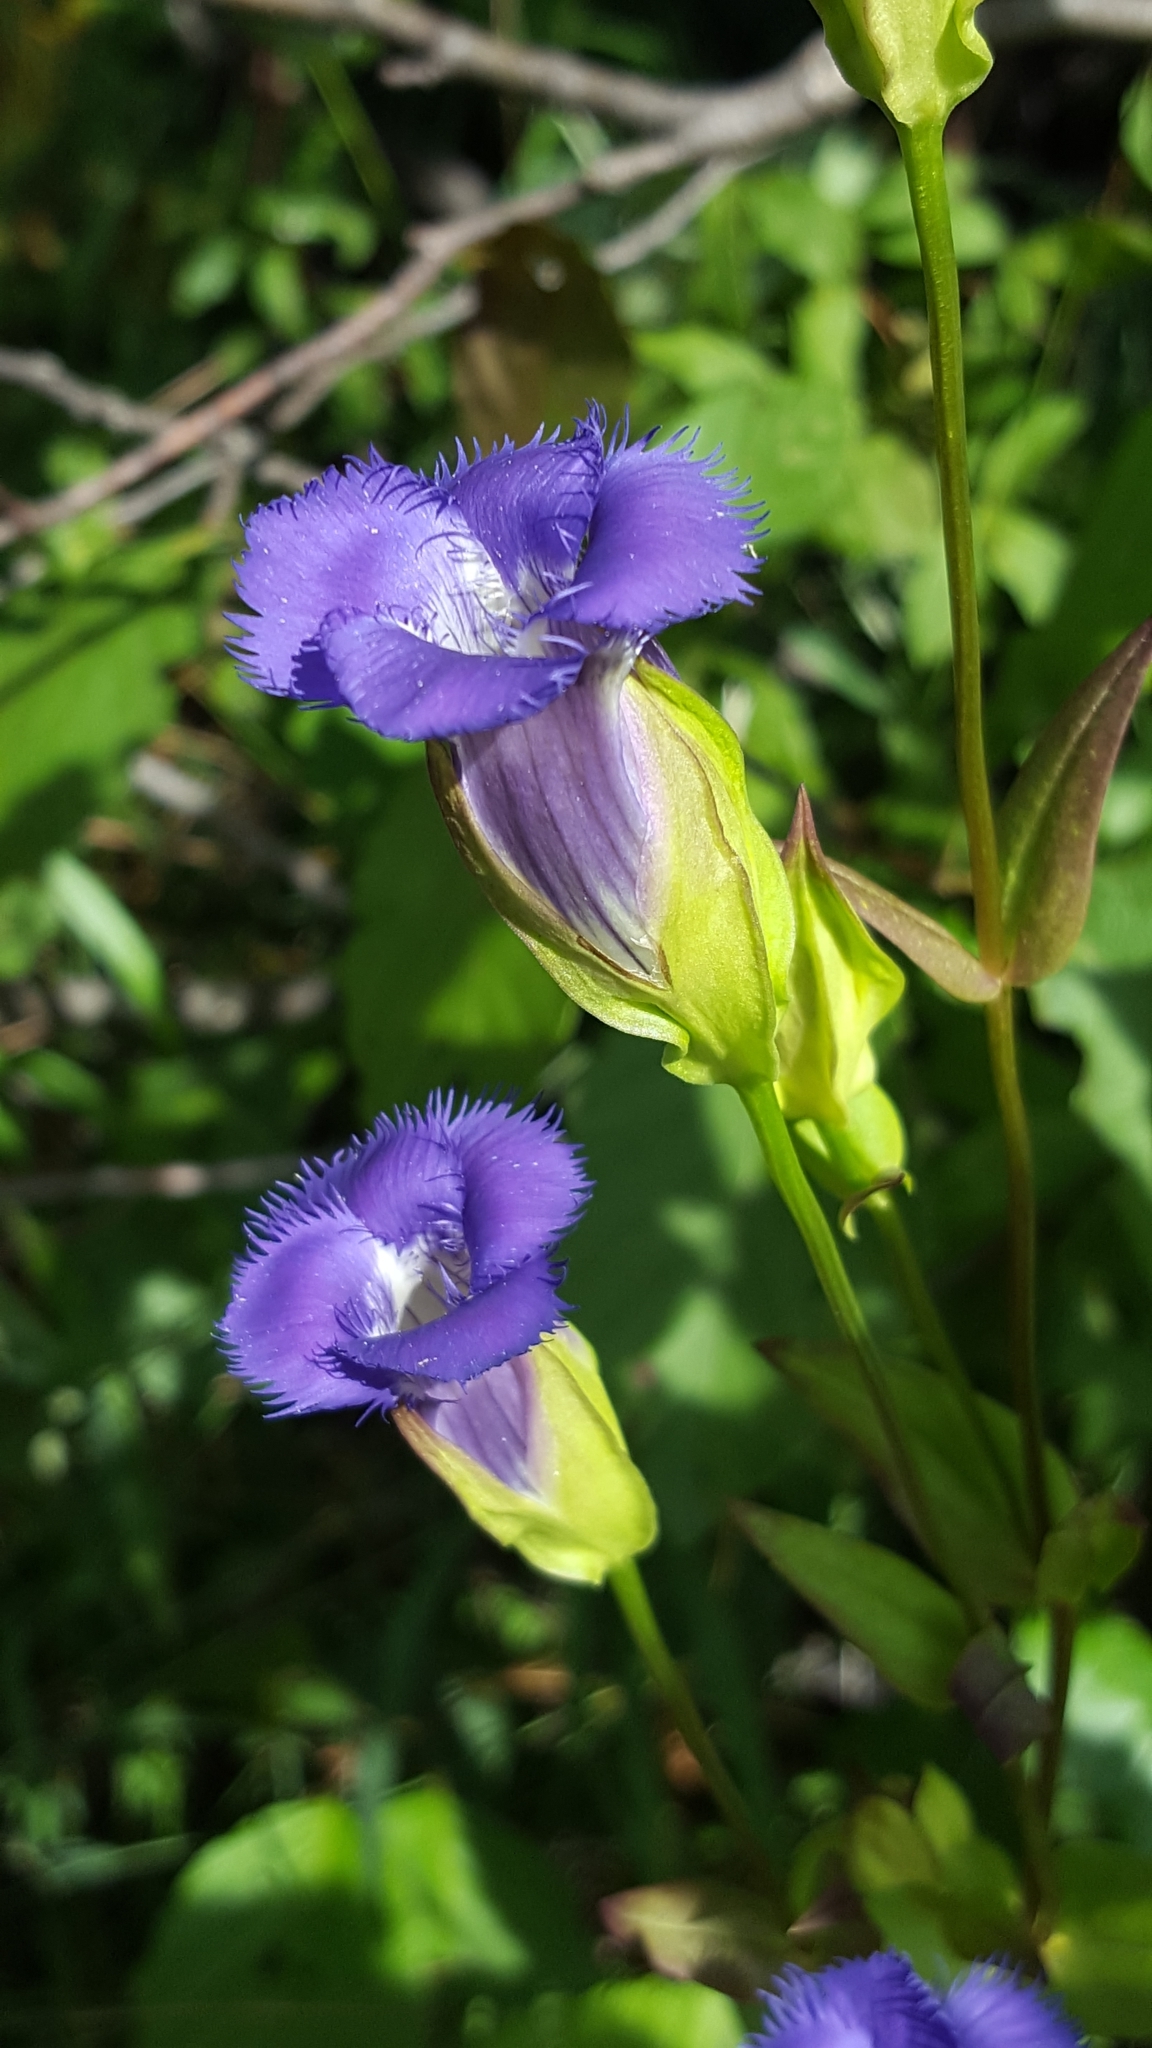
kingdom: Plantae
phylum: Tracheophyta
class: Magnoliopsida
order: Gentianales
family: Gentianaceae
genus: Gentianopsis
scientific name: Gentianopsis crinita
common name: Fringed-gentian
